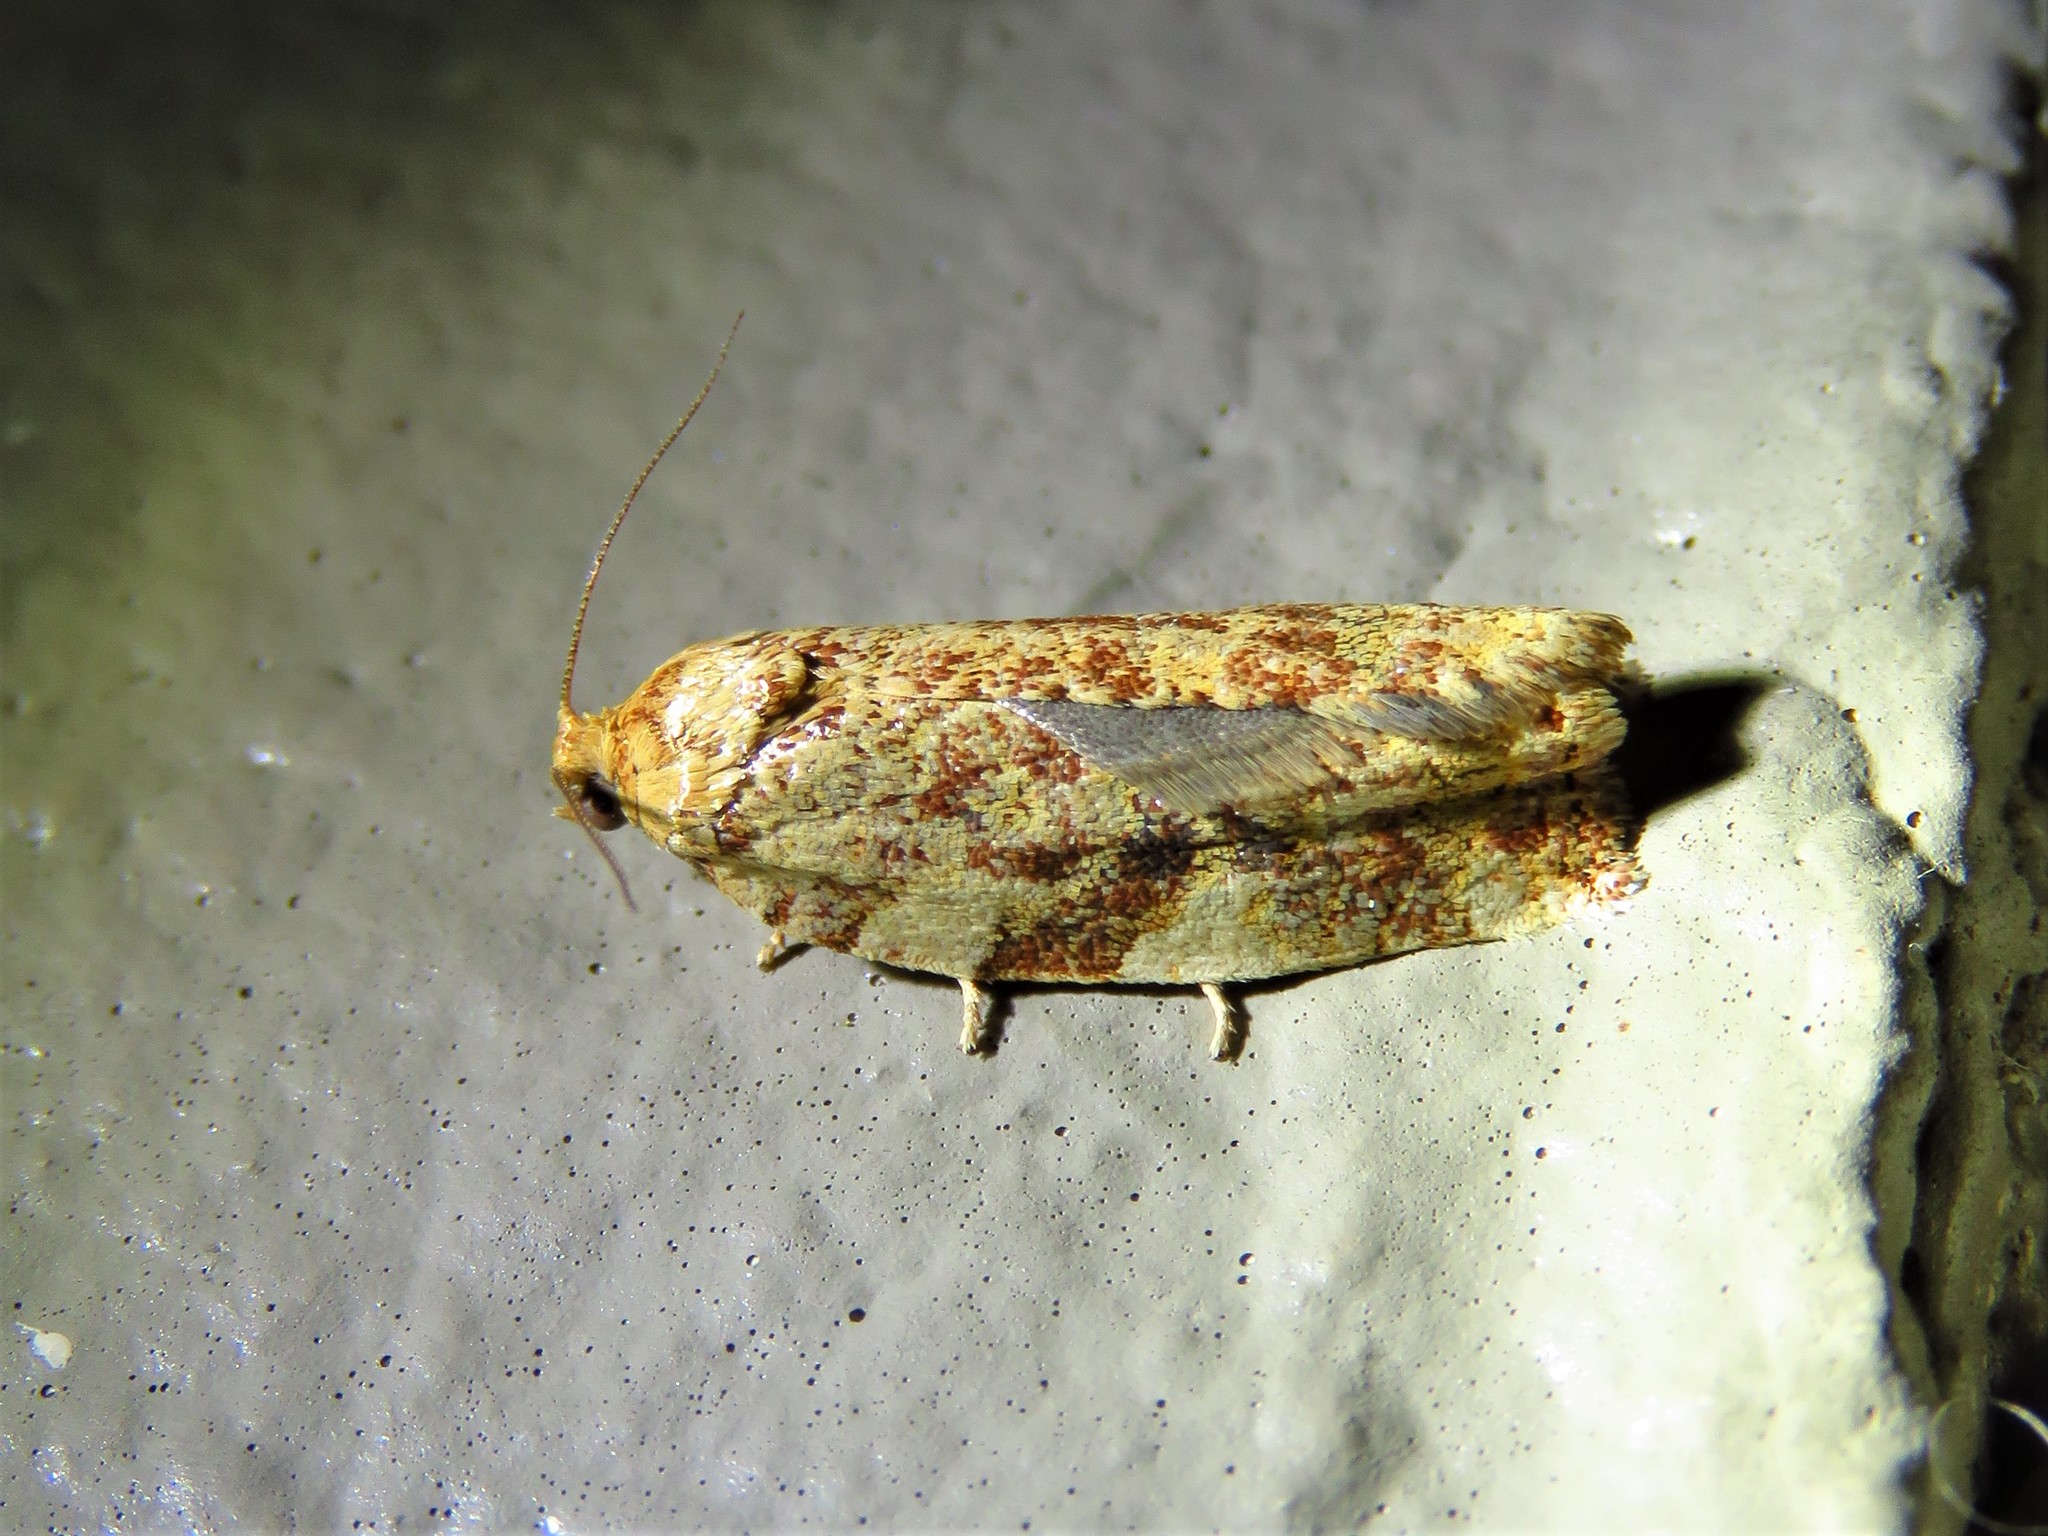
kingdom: Animalia
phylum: Arthropoda
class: Insecta
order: Lepidoptera
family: Tortricidae
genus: Archips
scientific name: Archips argyrospila
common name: Fruit-tree leafroller moth
